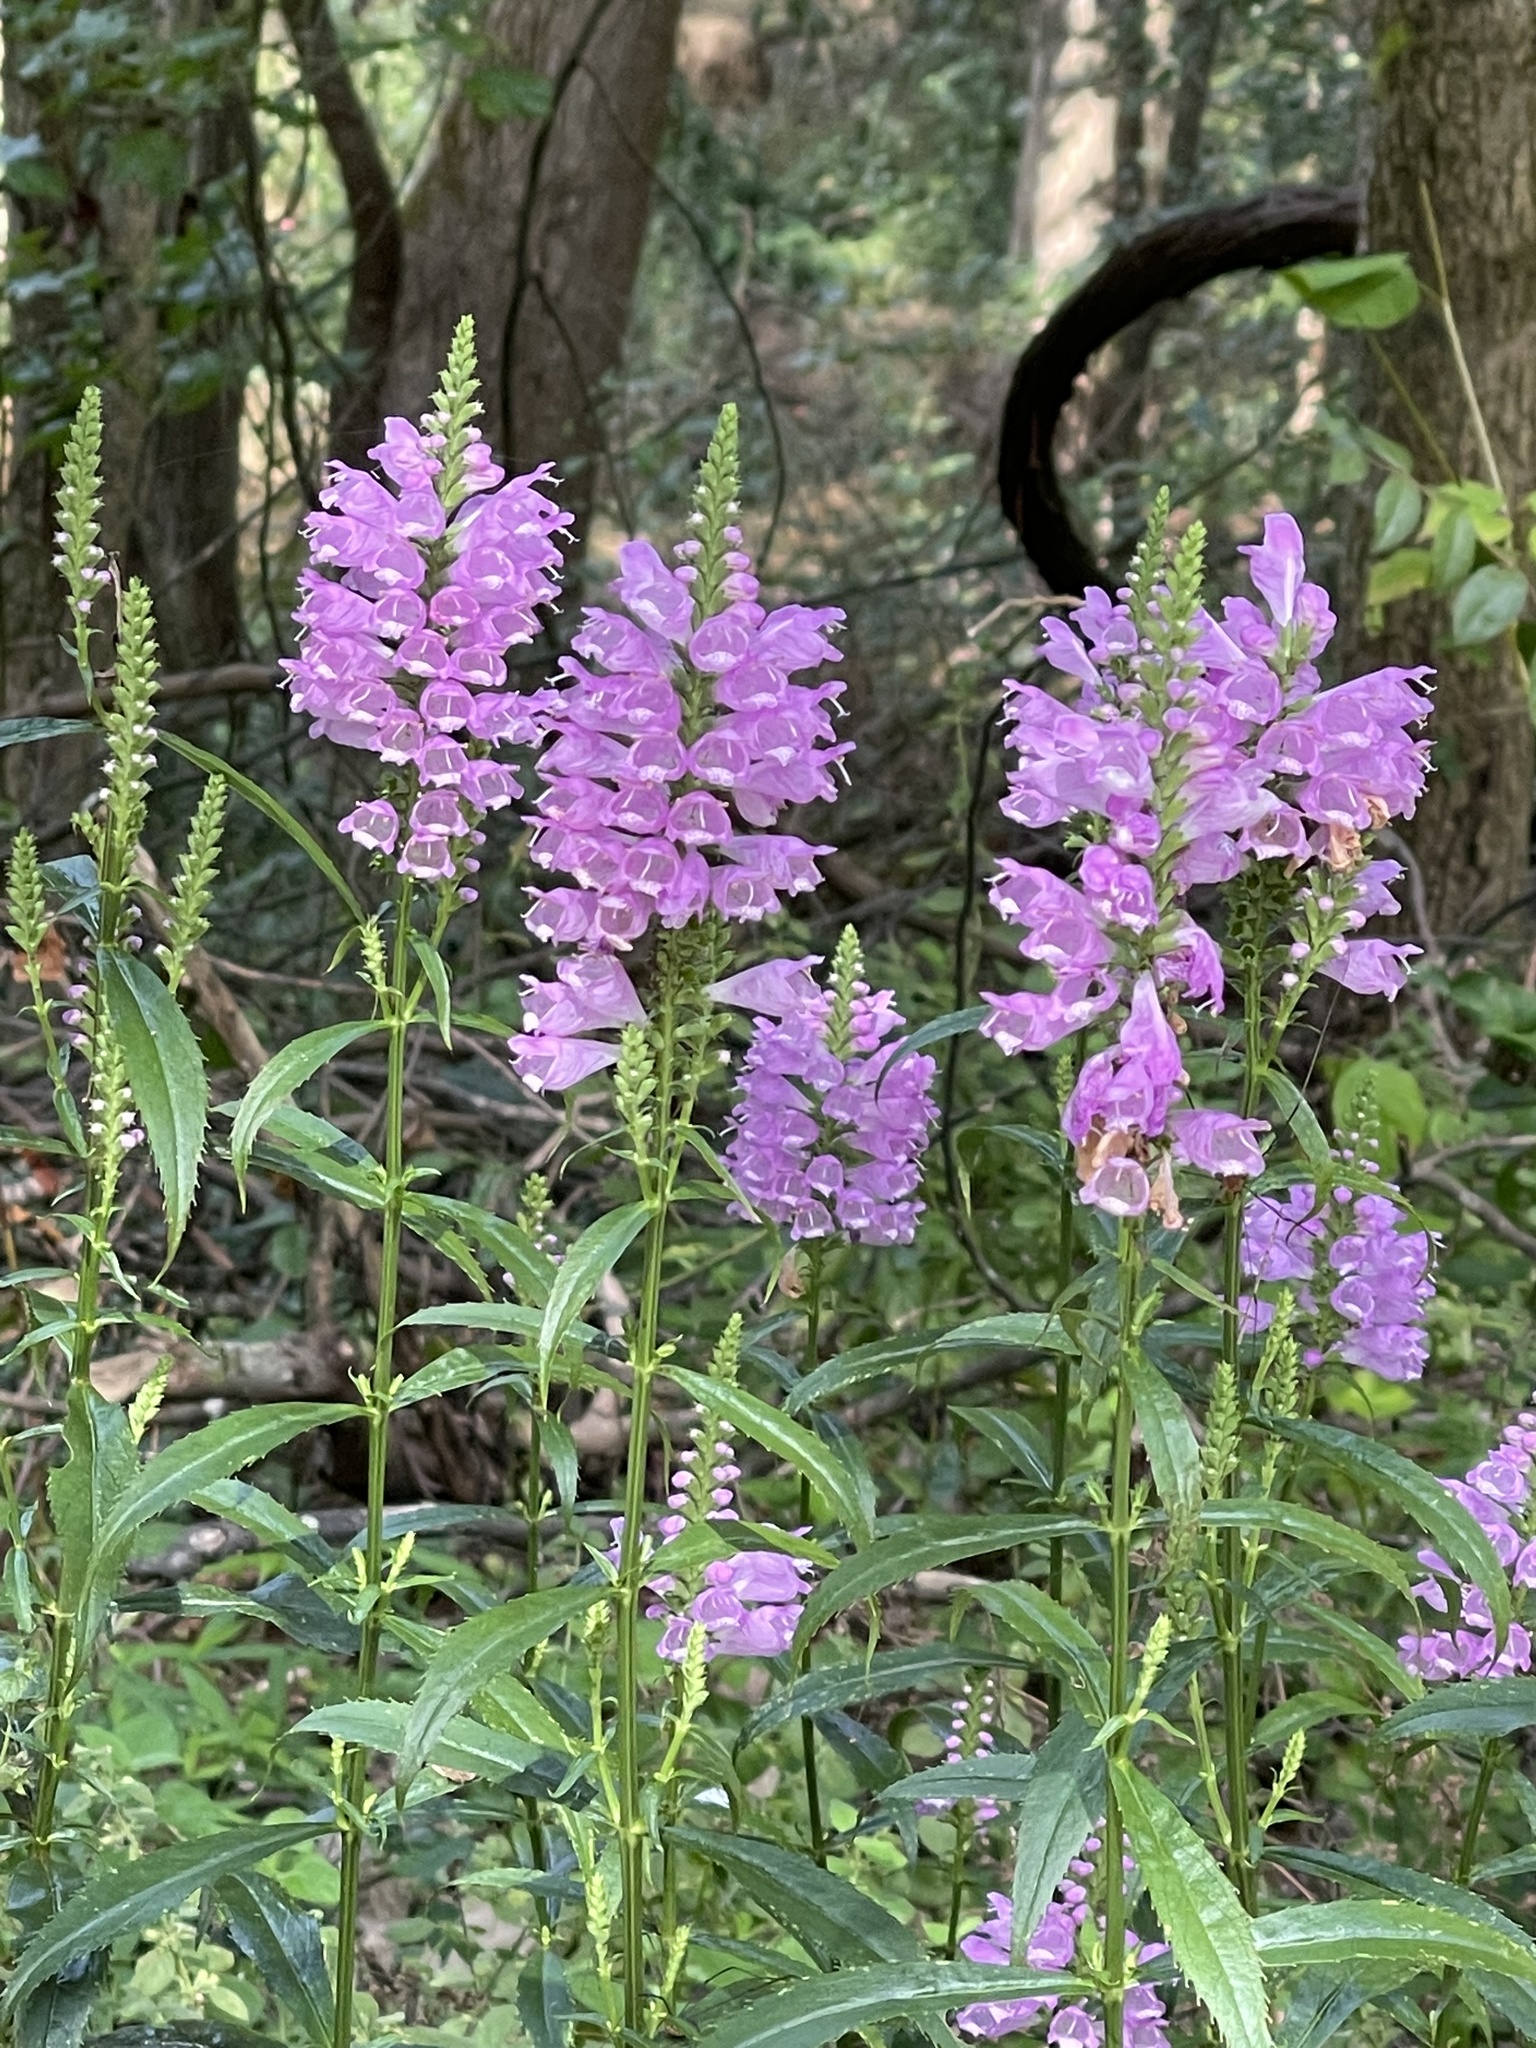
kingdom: Plantae
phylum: Tracheophyta
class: Magnoliopsida
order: Lamiales
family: Lamiaceae
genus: Physostegia
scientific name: Physostegia virginiana
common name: Obedient-plant
